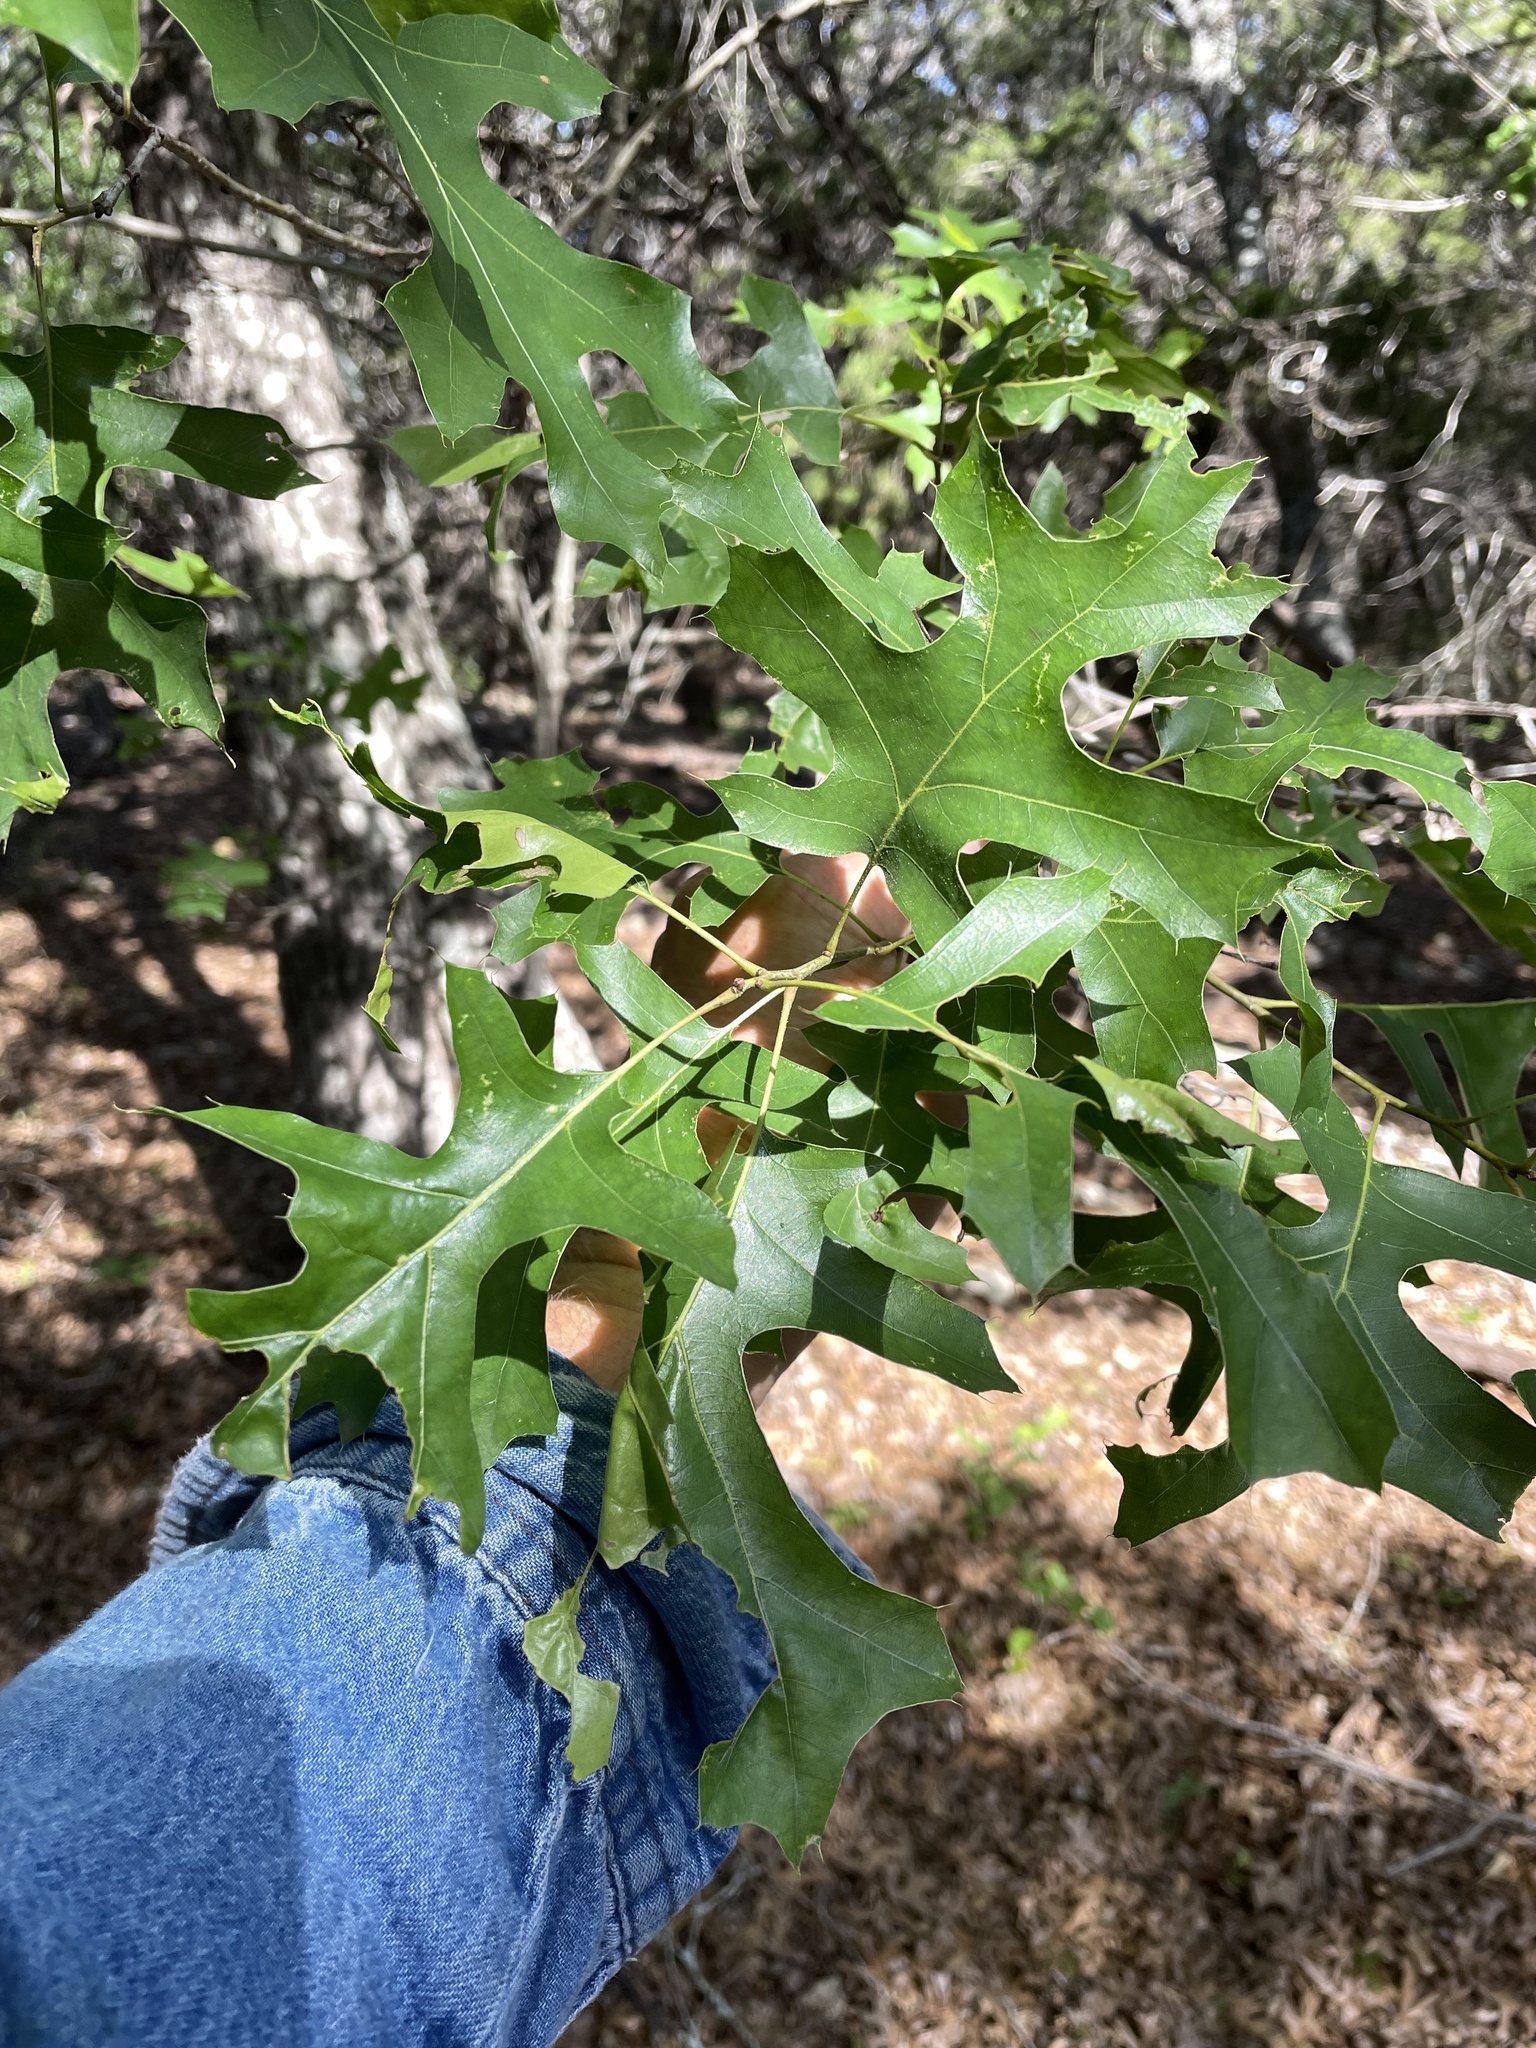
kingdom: Plantae
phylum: Tracheophyta
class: Magnoliopsida
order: Fagales
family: Fagaceae
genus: Quercus
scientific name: Quercus buckleyi
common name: Buckley oak
